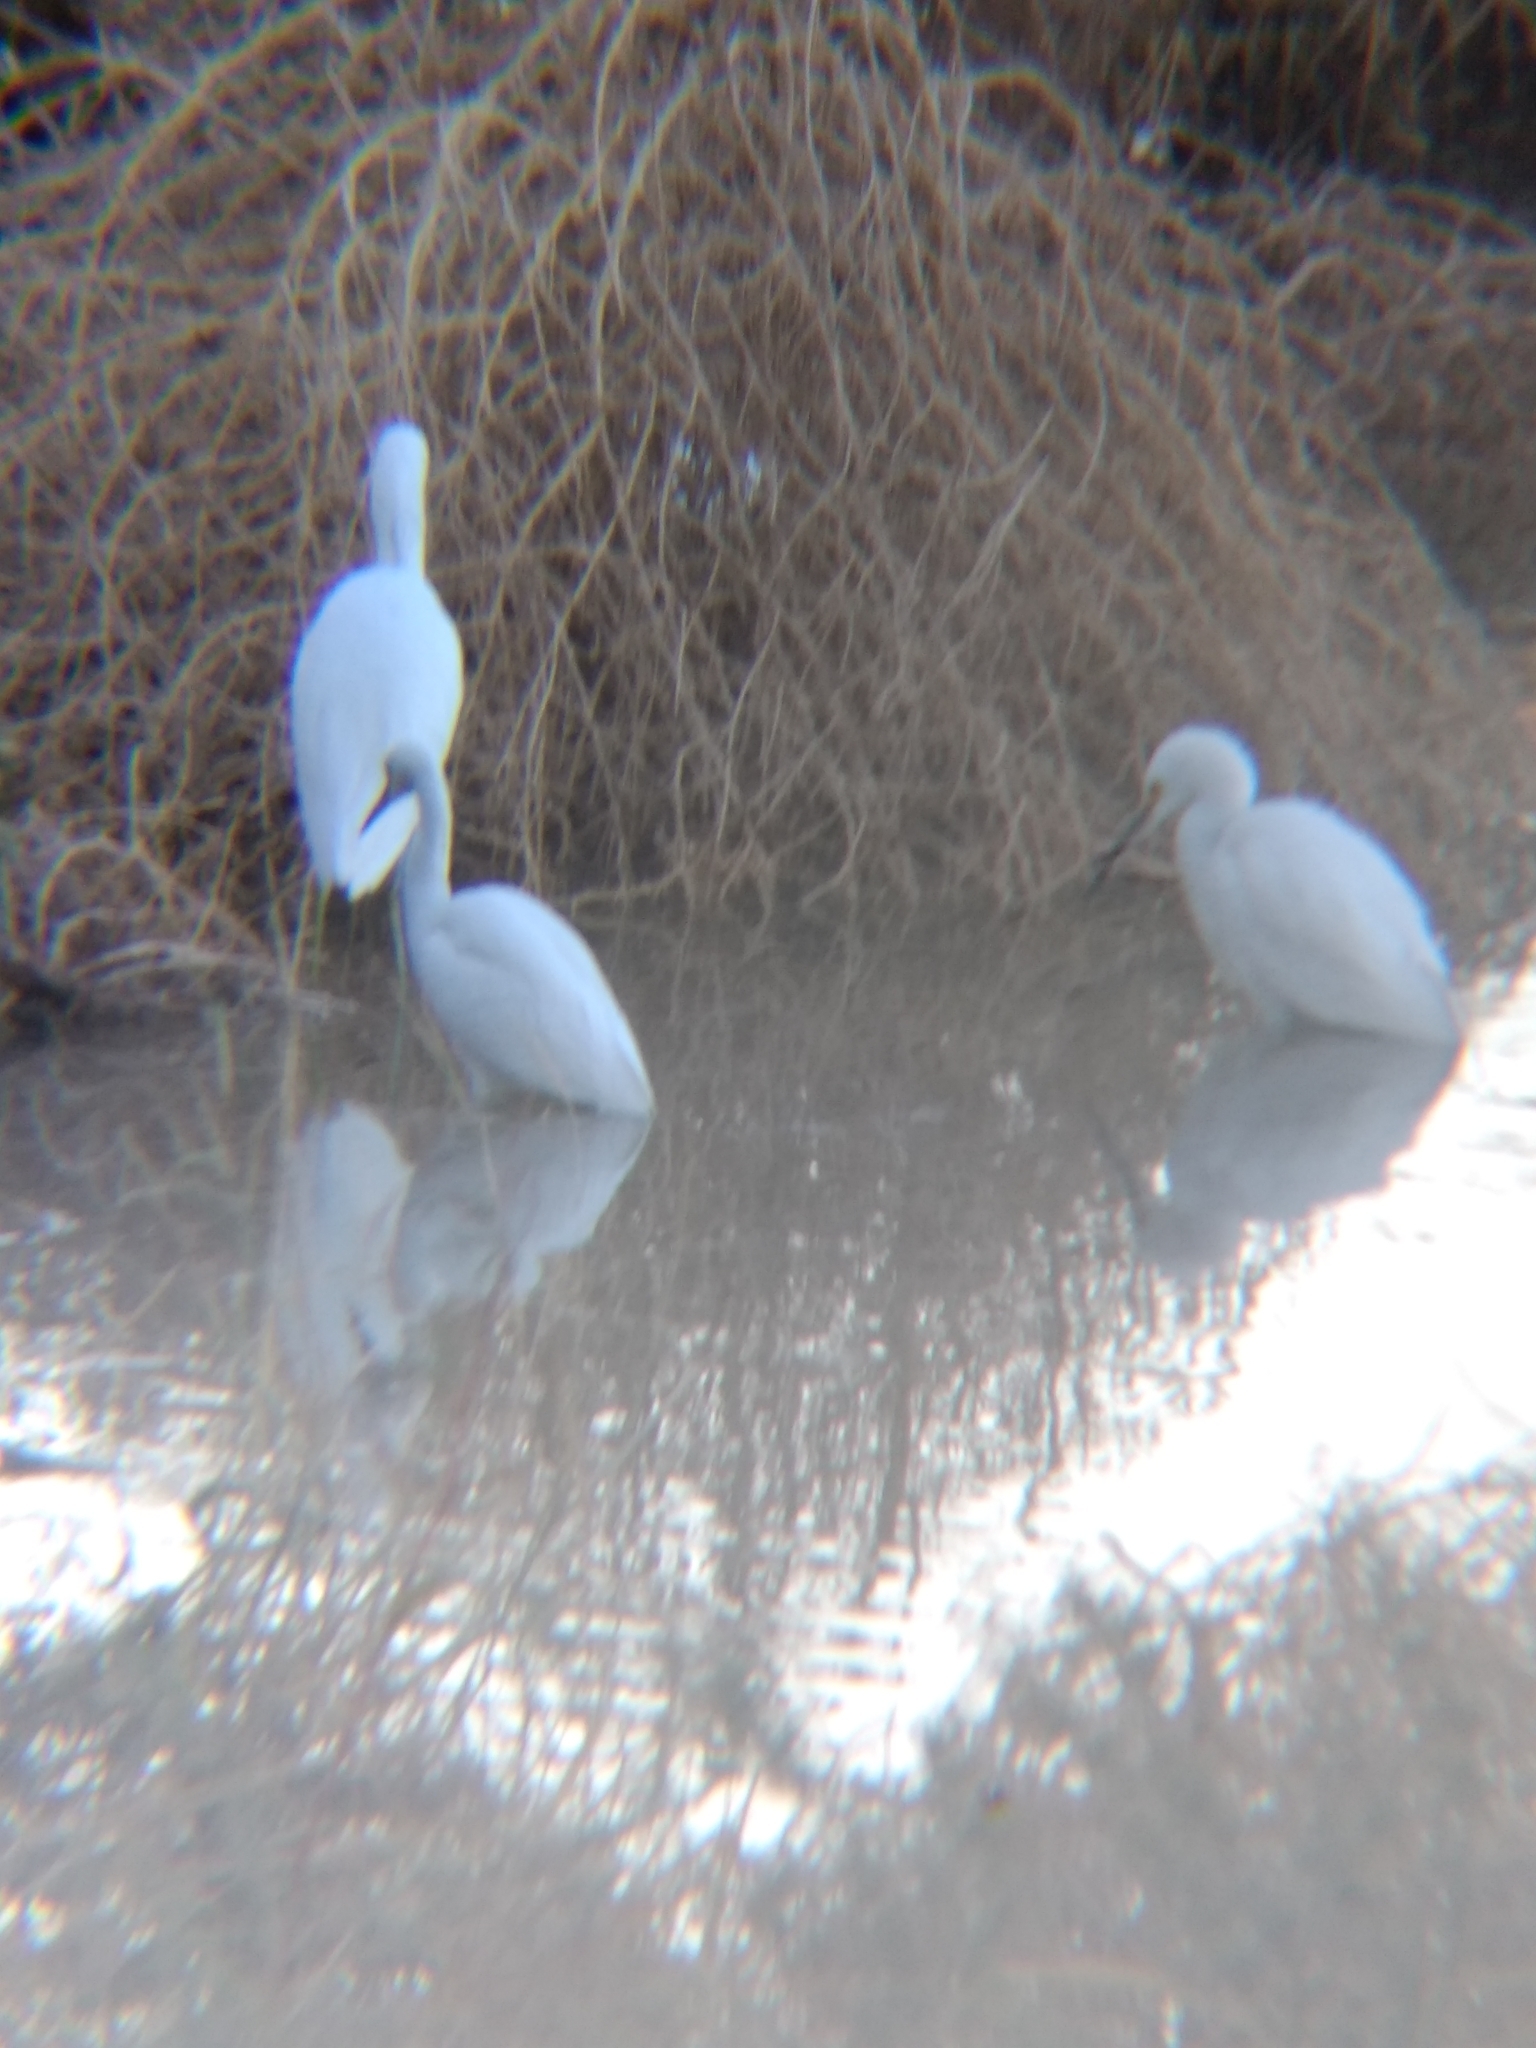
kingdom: Animalia
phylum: Chordata
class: Aves
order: Pelecaniformes
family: Ardeidae
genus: Egretta
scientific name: Egretta thula
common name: Snowy egret
